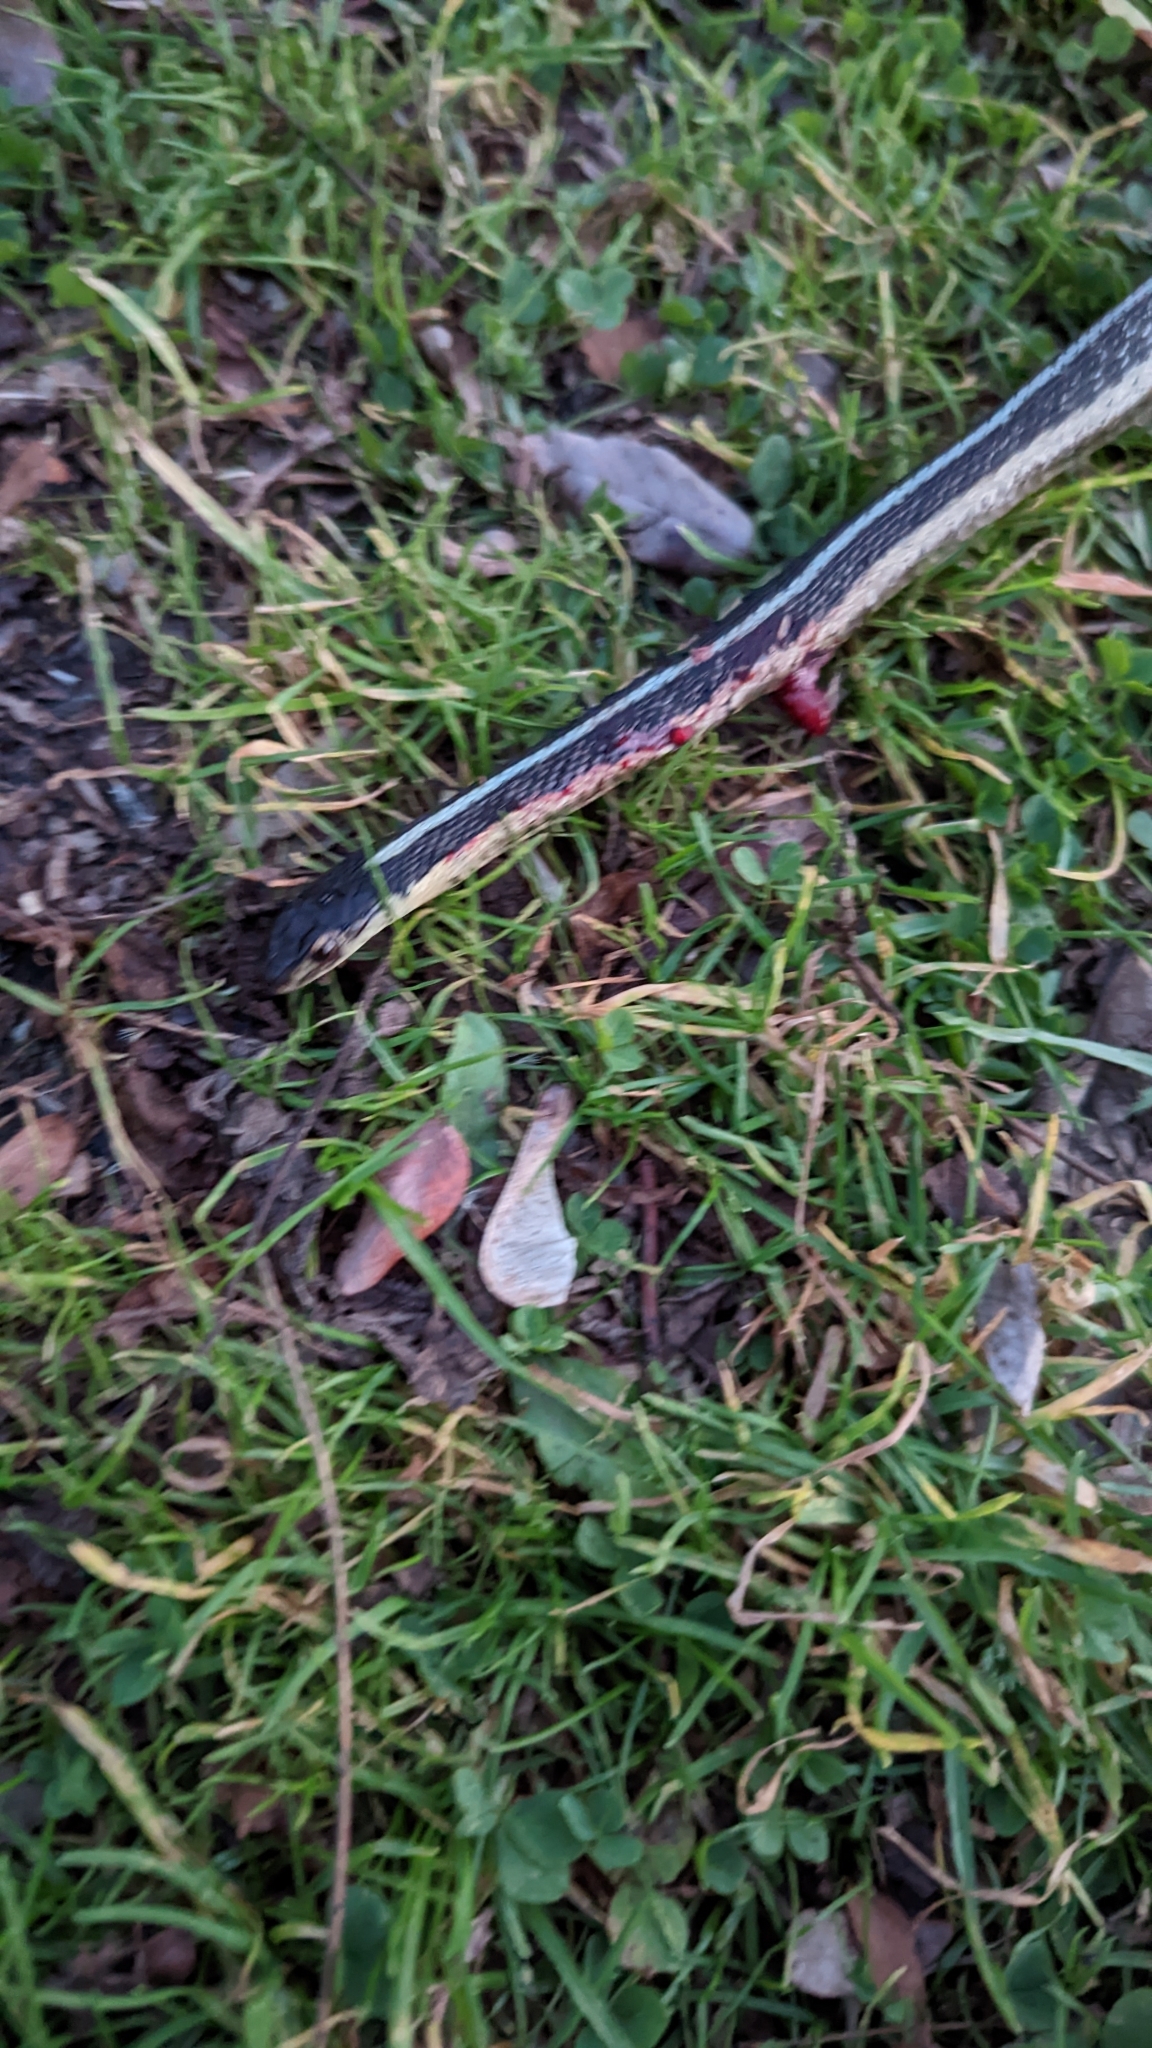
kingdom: Animalia
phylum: Chordata
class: Squamata
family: Colubridae
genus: Thamnophis
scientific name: Thamnophis sirtalis
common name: Common garter snake
